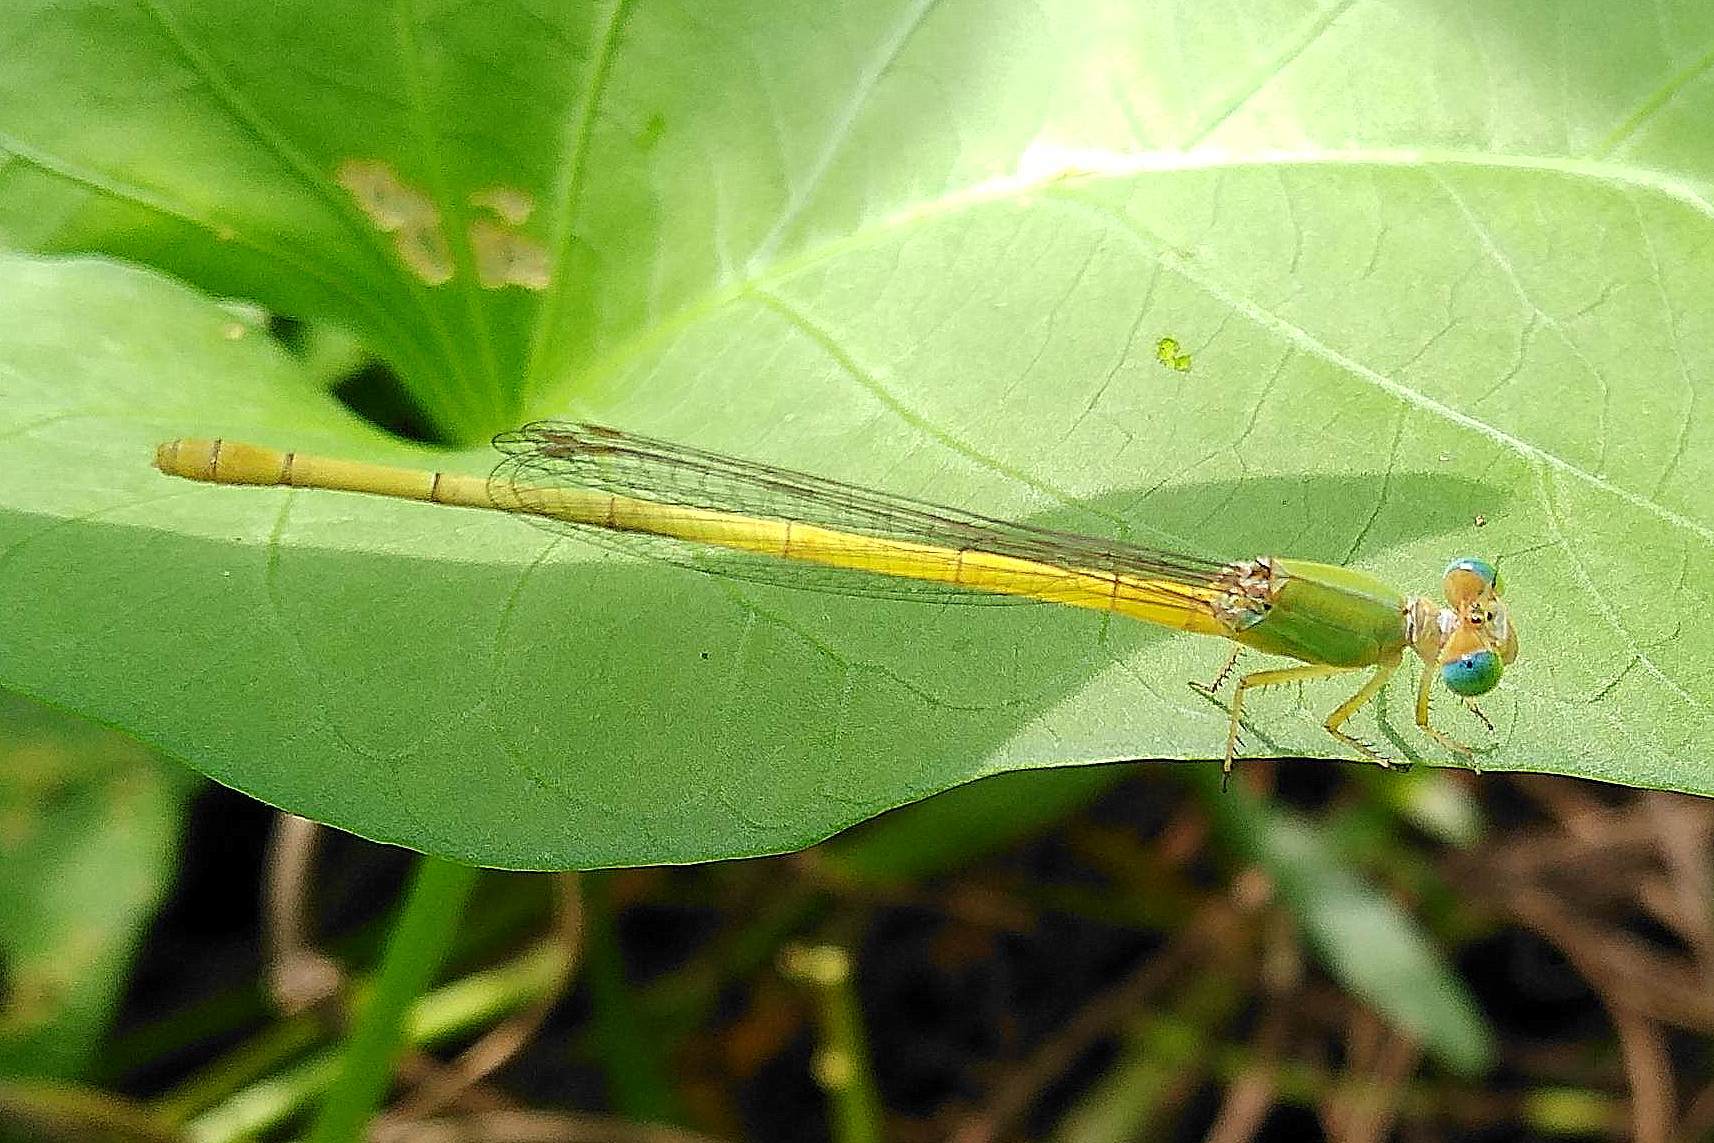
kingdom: Animalia
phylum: Arthropoda
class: Insecta
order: Odonata
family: Coenagrionidae
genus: Ceriagrion
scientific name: Ceriagrion coromandelianum
